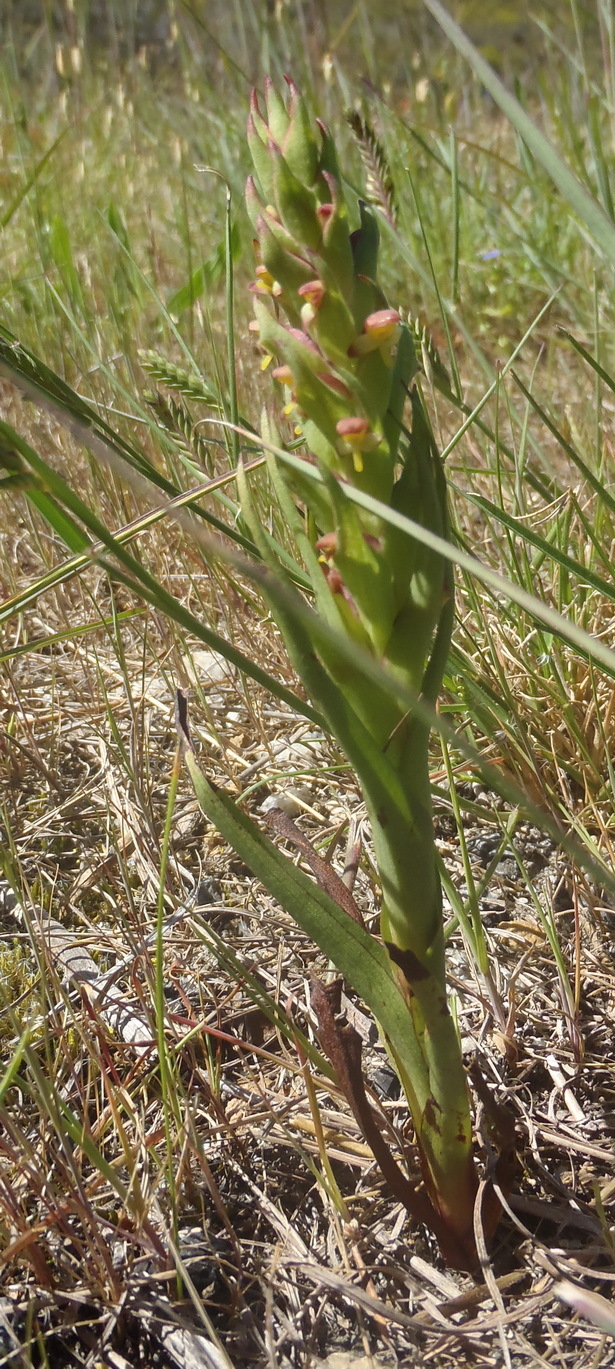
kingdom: Plantae
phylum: Tracheophyta
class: Liliopsida
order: Asparagales
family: Orchidaceae
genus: Disa
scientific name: Disa bracteata
